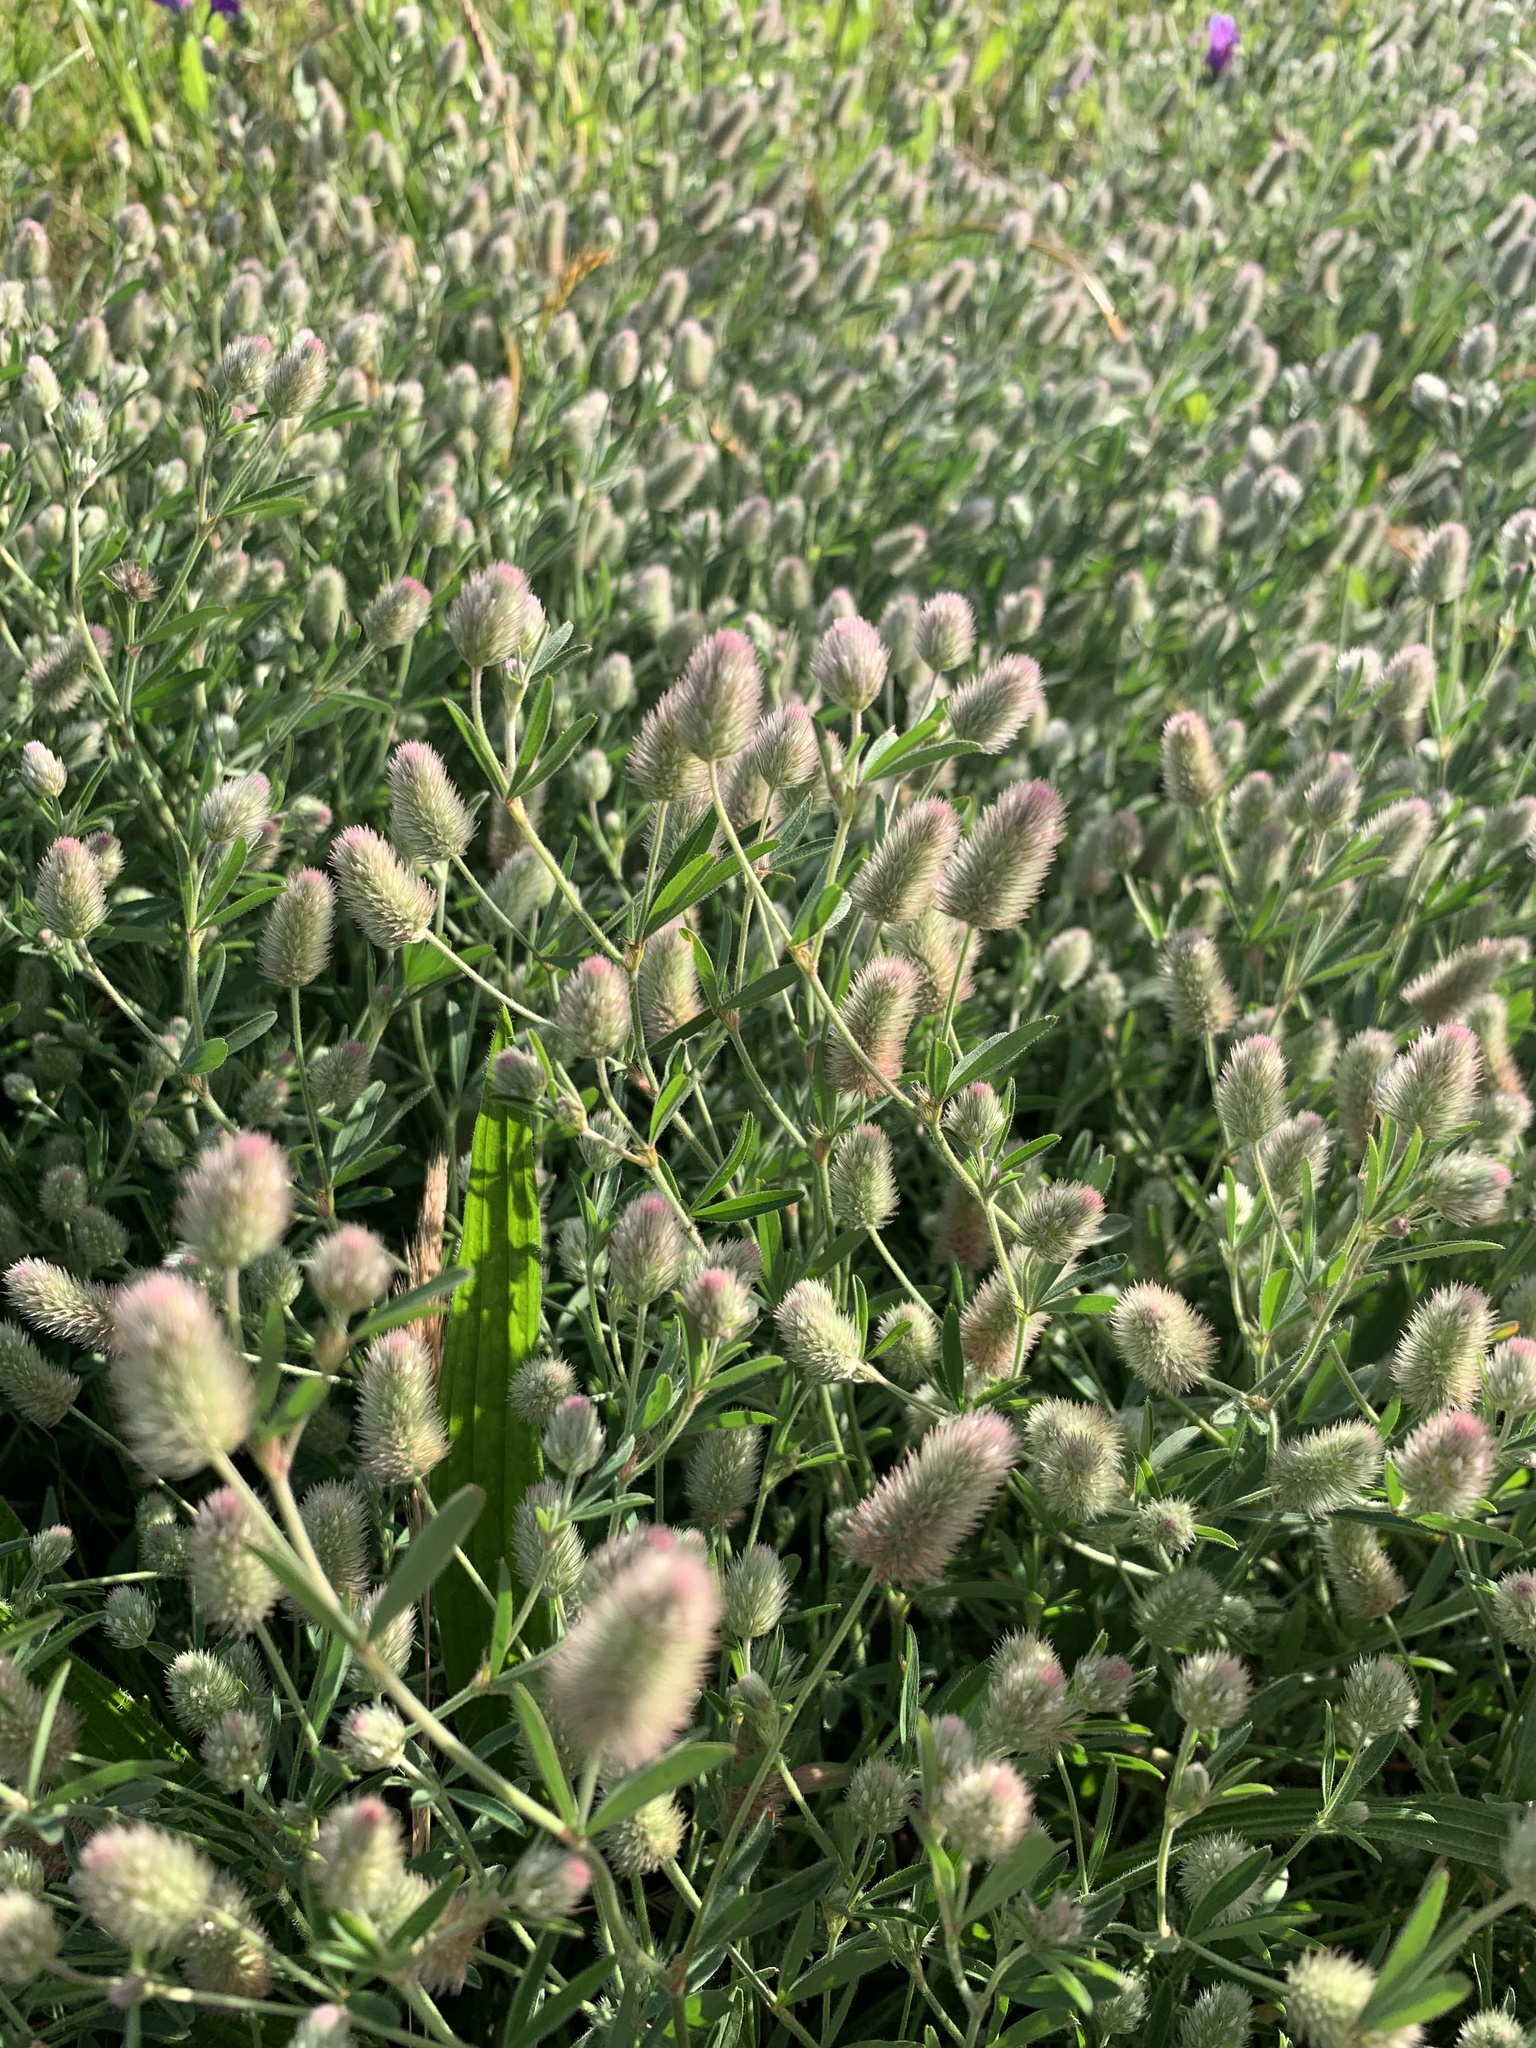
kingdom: Plantae
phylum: Tracheophyta
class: Magnoliopsida
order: Fabales
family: Fabaceae
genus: Trifolium
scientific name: Trifolium arvense
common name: Hare's-foot clover
